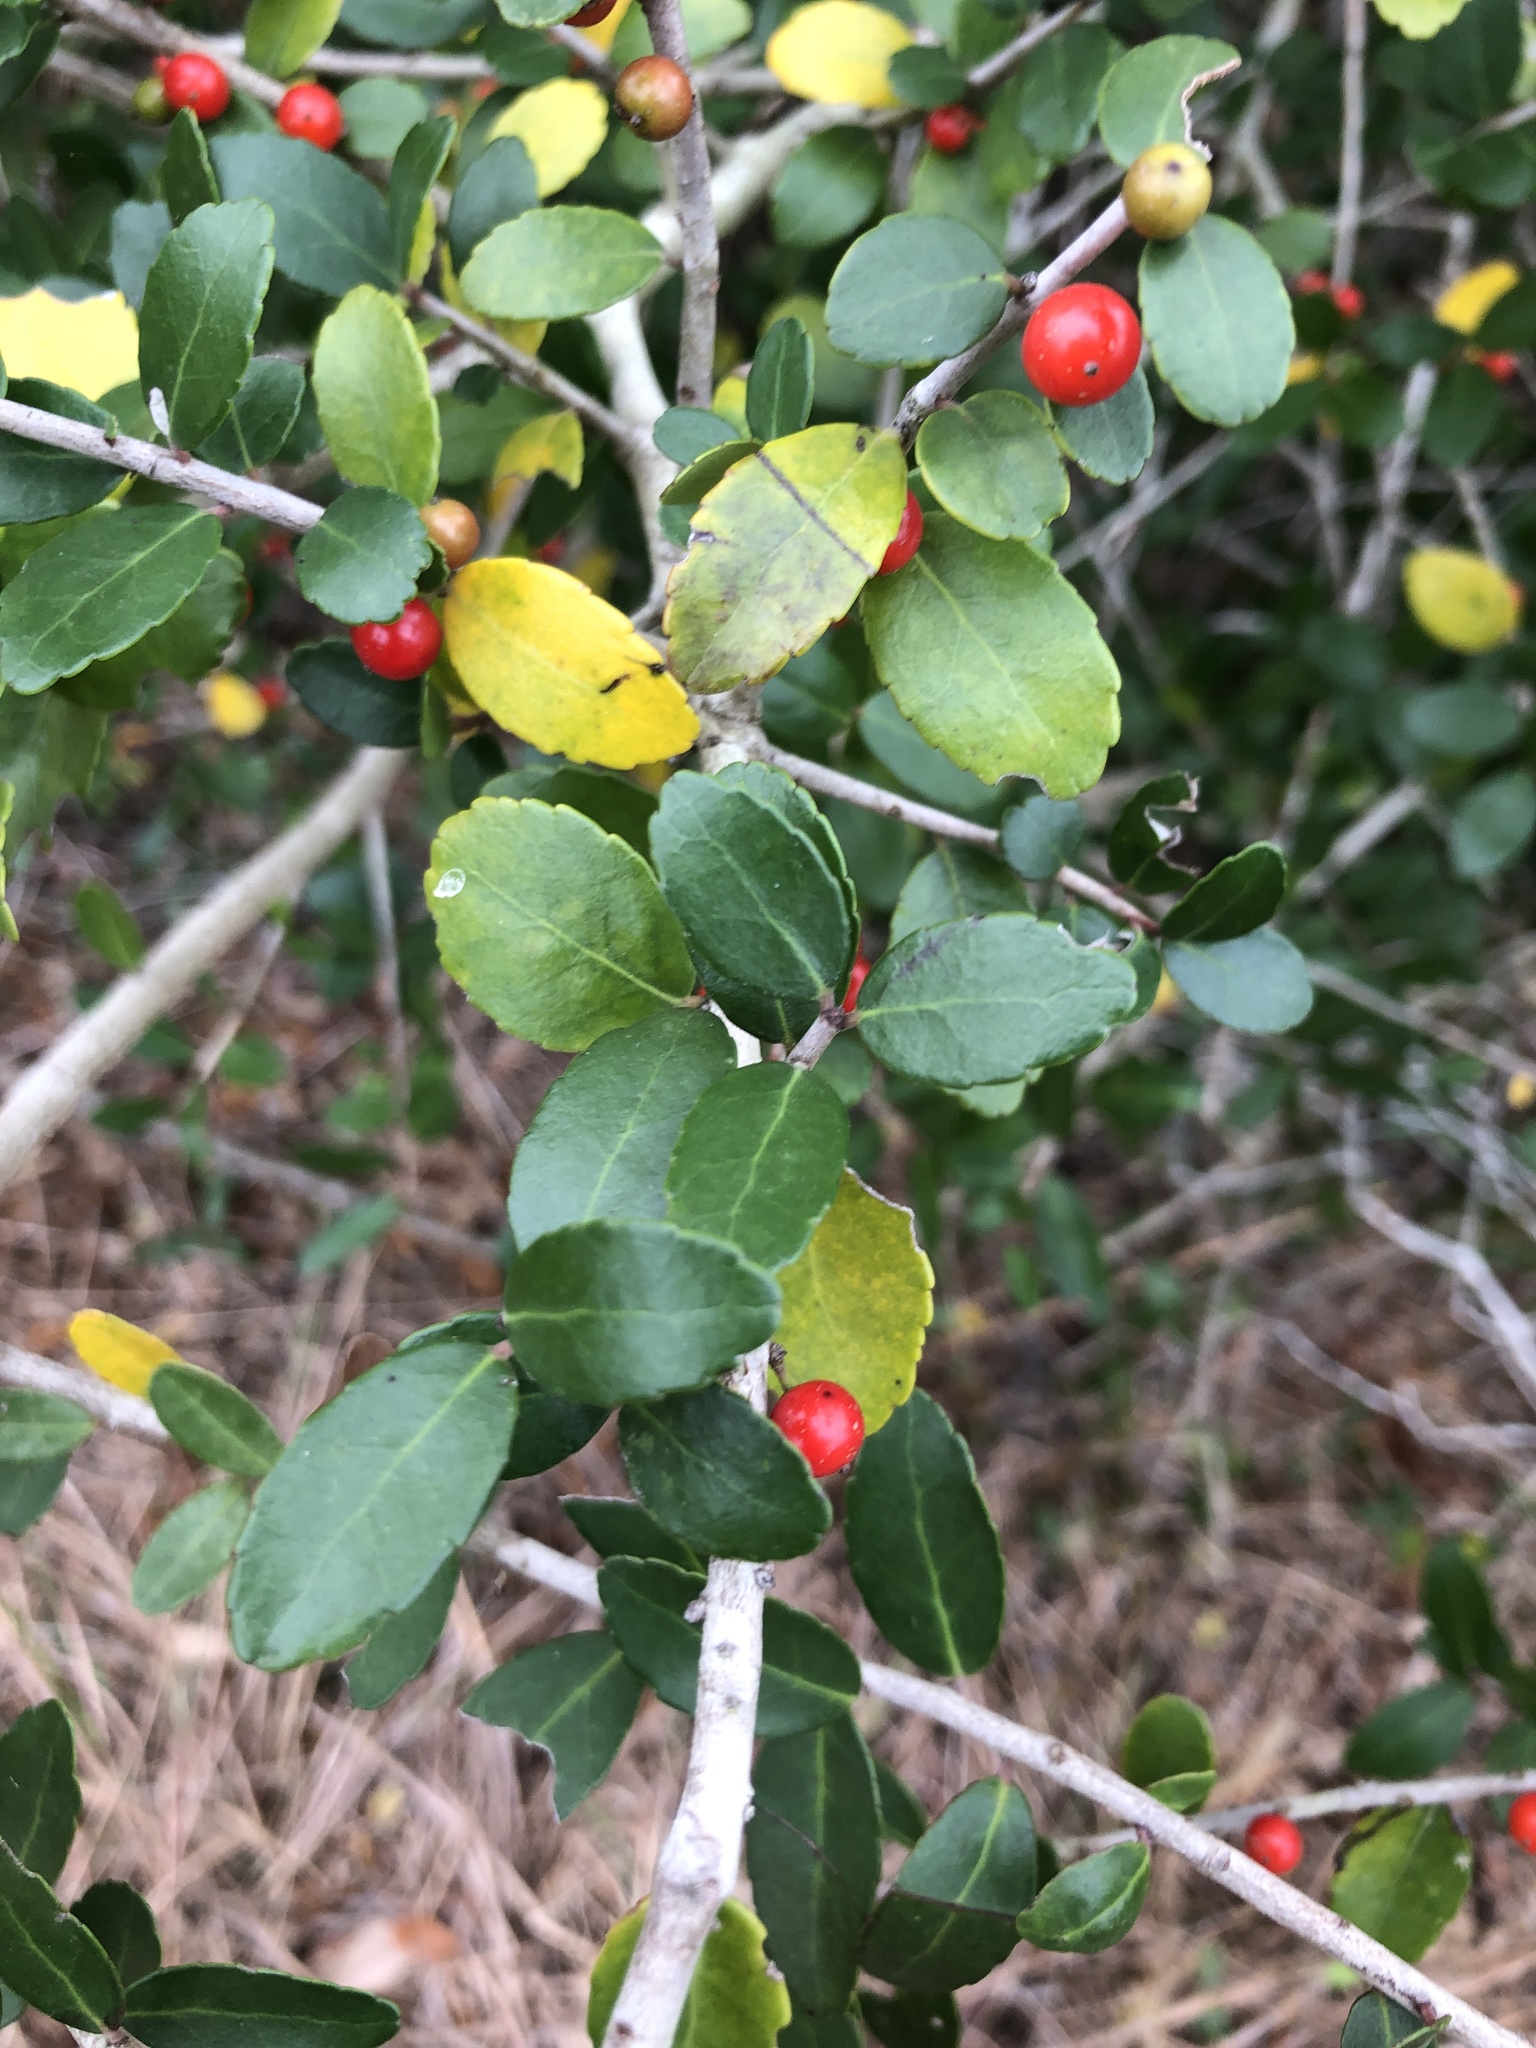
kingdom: Plantae
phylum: Tracheophyta
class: Magnoliopsida
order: Aquifoliales
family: Aquifoliaceae
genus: Ilex
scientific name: Ilex vomitoria
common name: Yaupon holly
